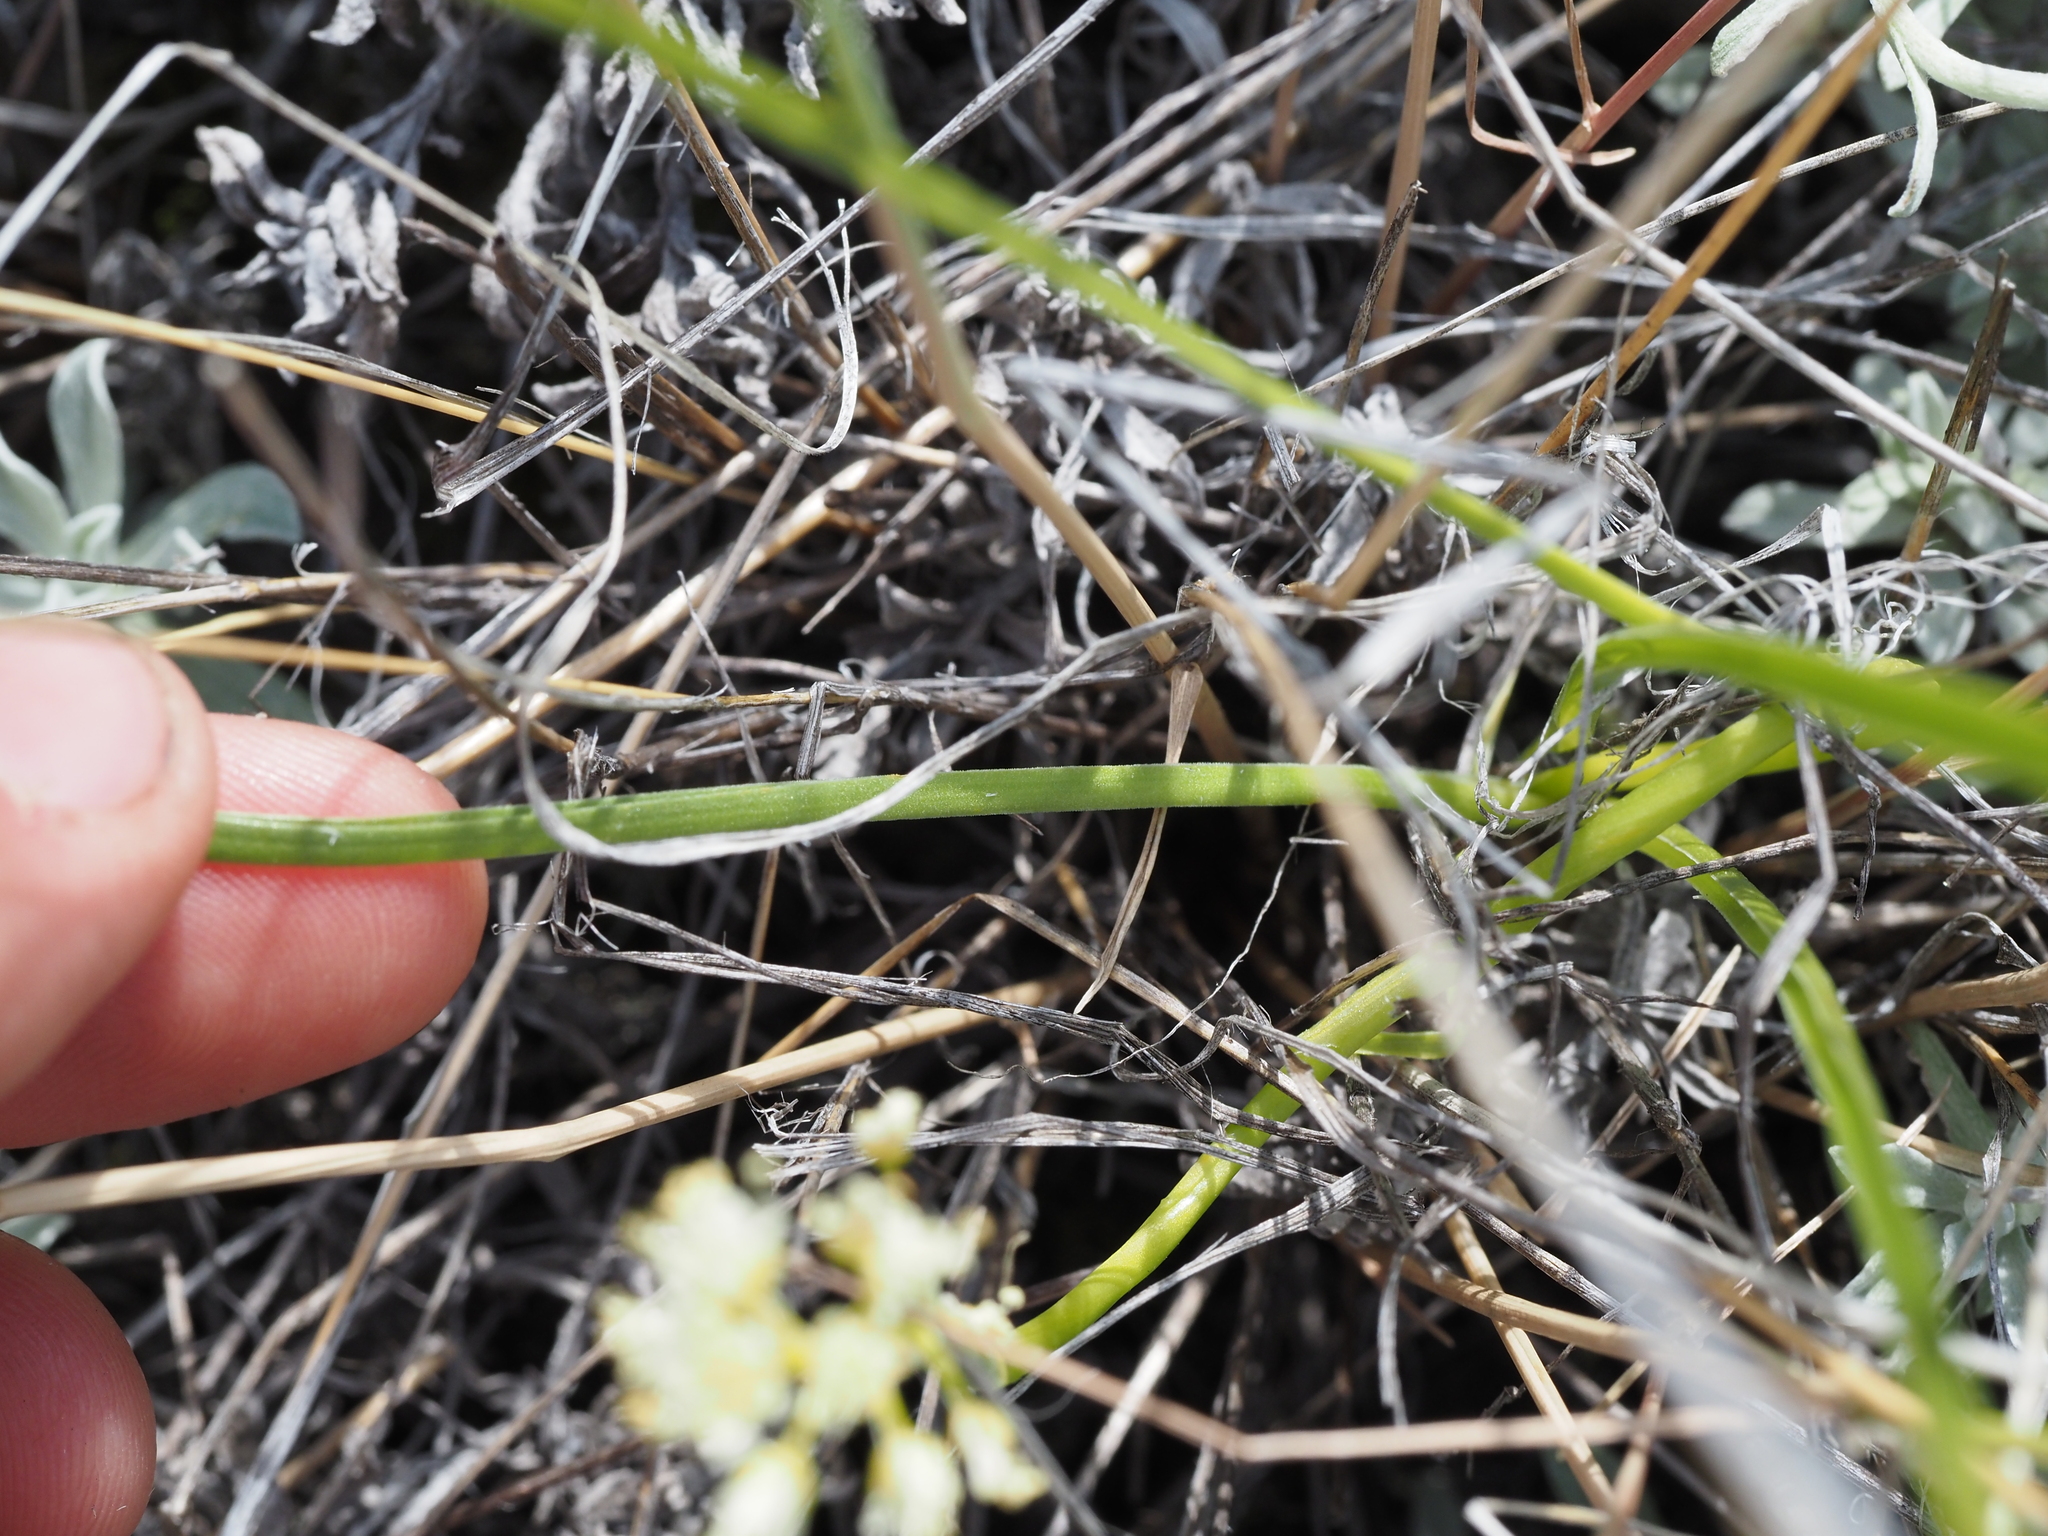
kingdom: Plantae
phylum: Tracheophyta
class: Liliopsida
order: Liliales
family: Melanthiaceae
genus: Toxicoscordion
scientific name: Toxicoscordion venenosum
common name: Meadow death camas
